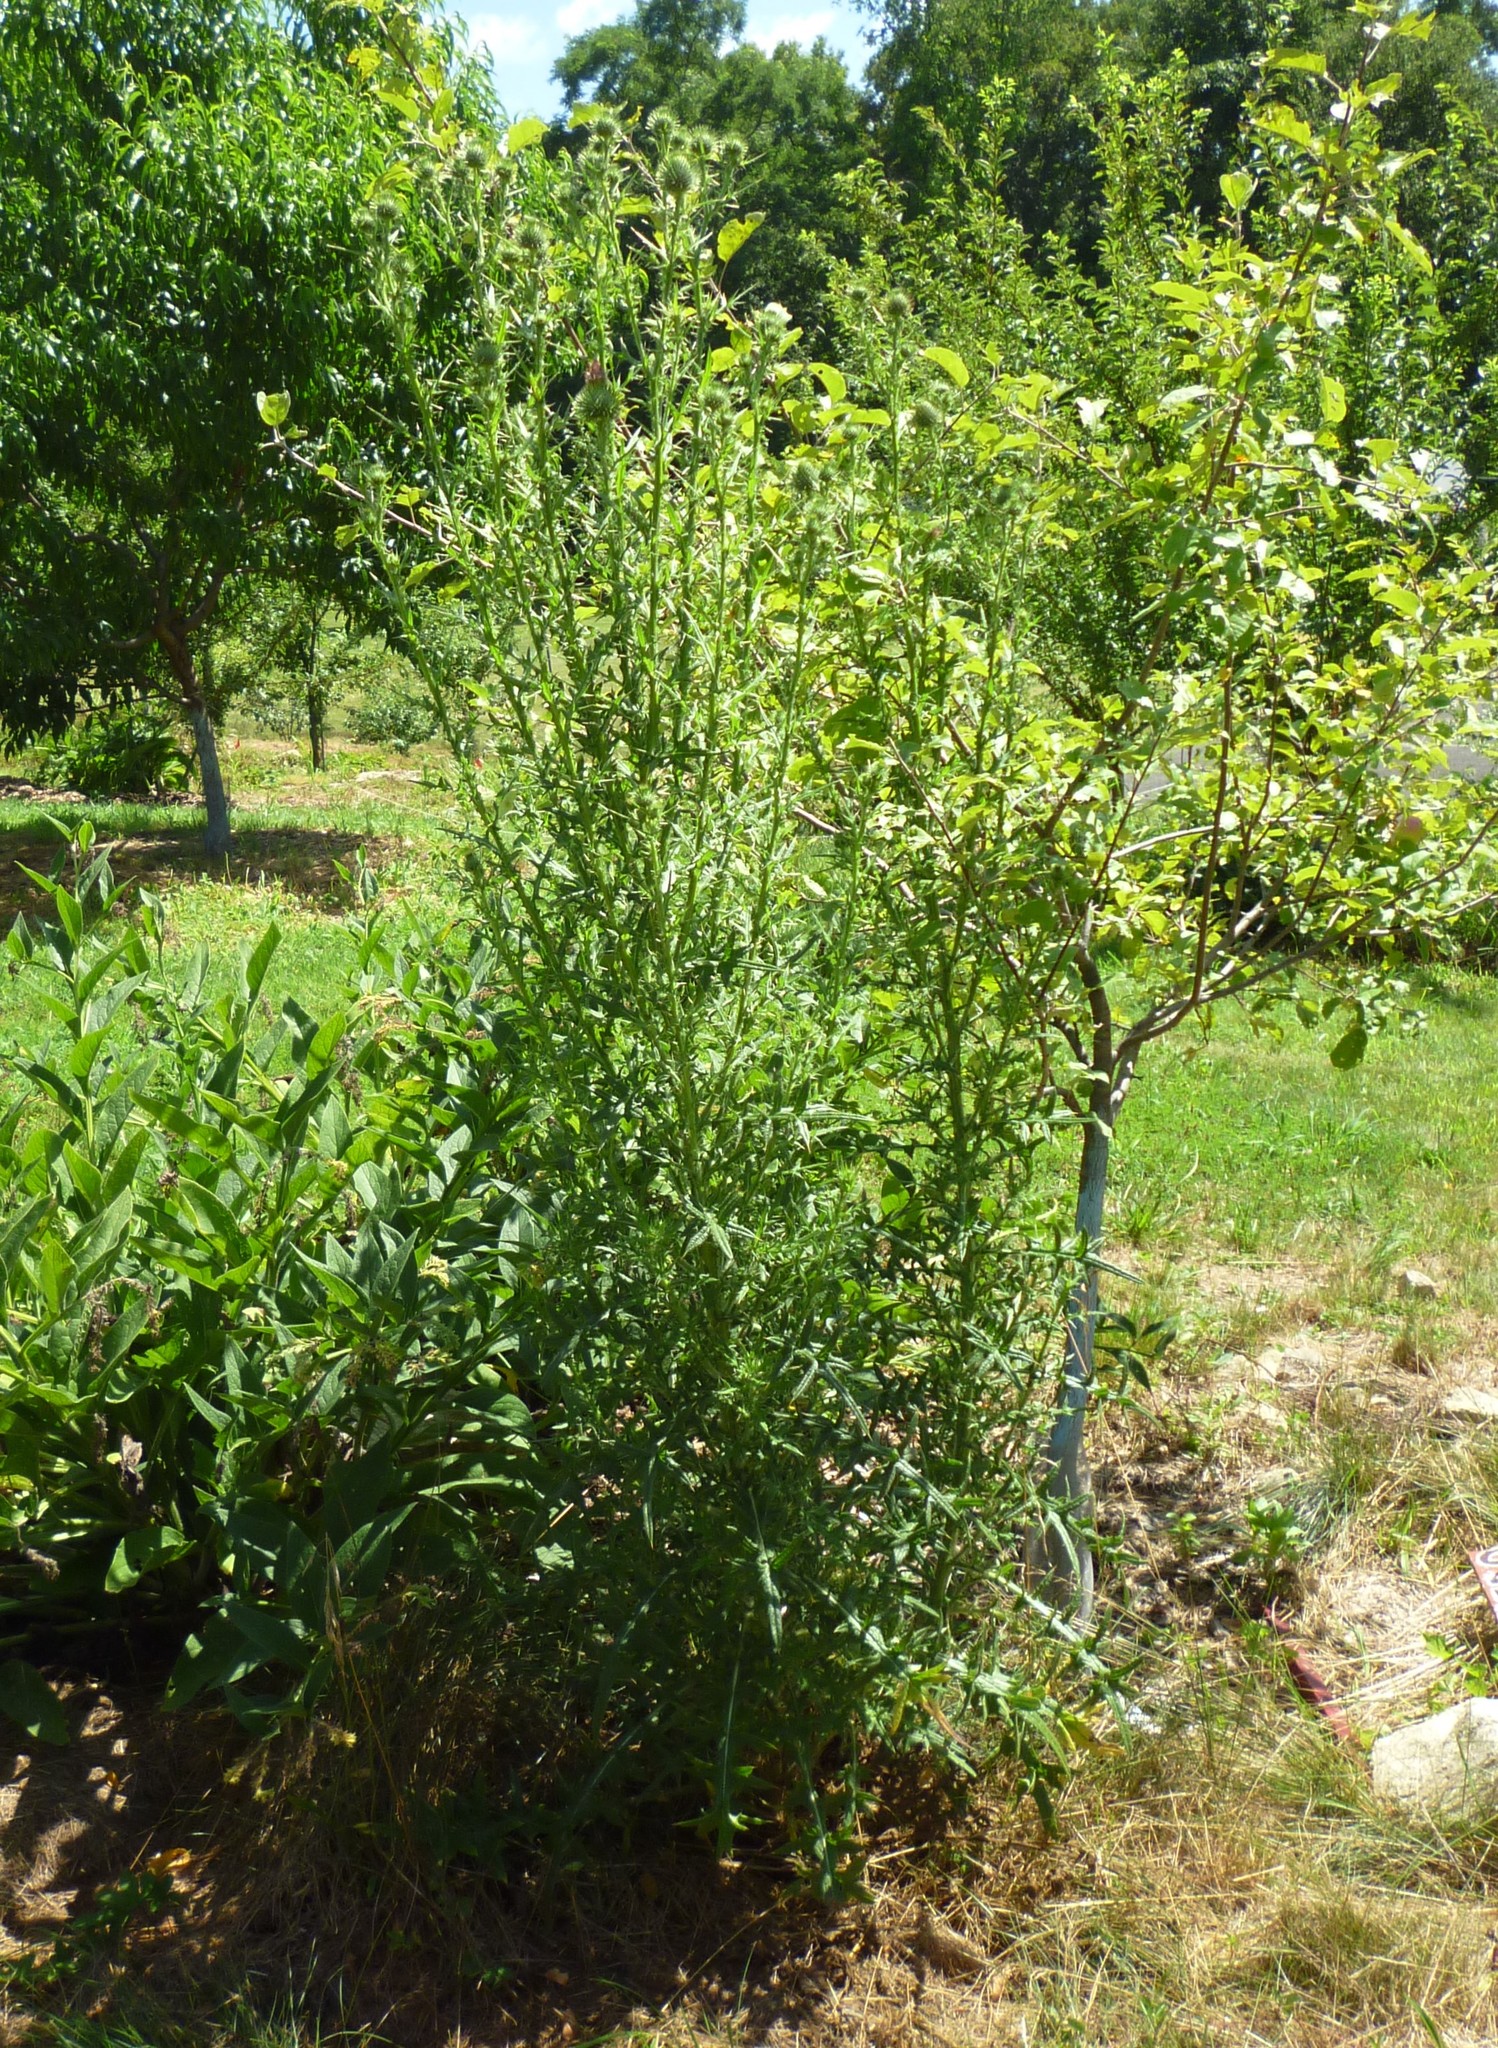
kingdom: Plantae
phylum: Tracheophyta
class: Magnoliopsida
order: Asterales
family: Asteraceae
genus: Cirsium
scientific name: Cirsium vulgare
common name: Bull thistle
